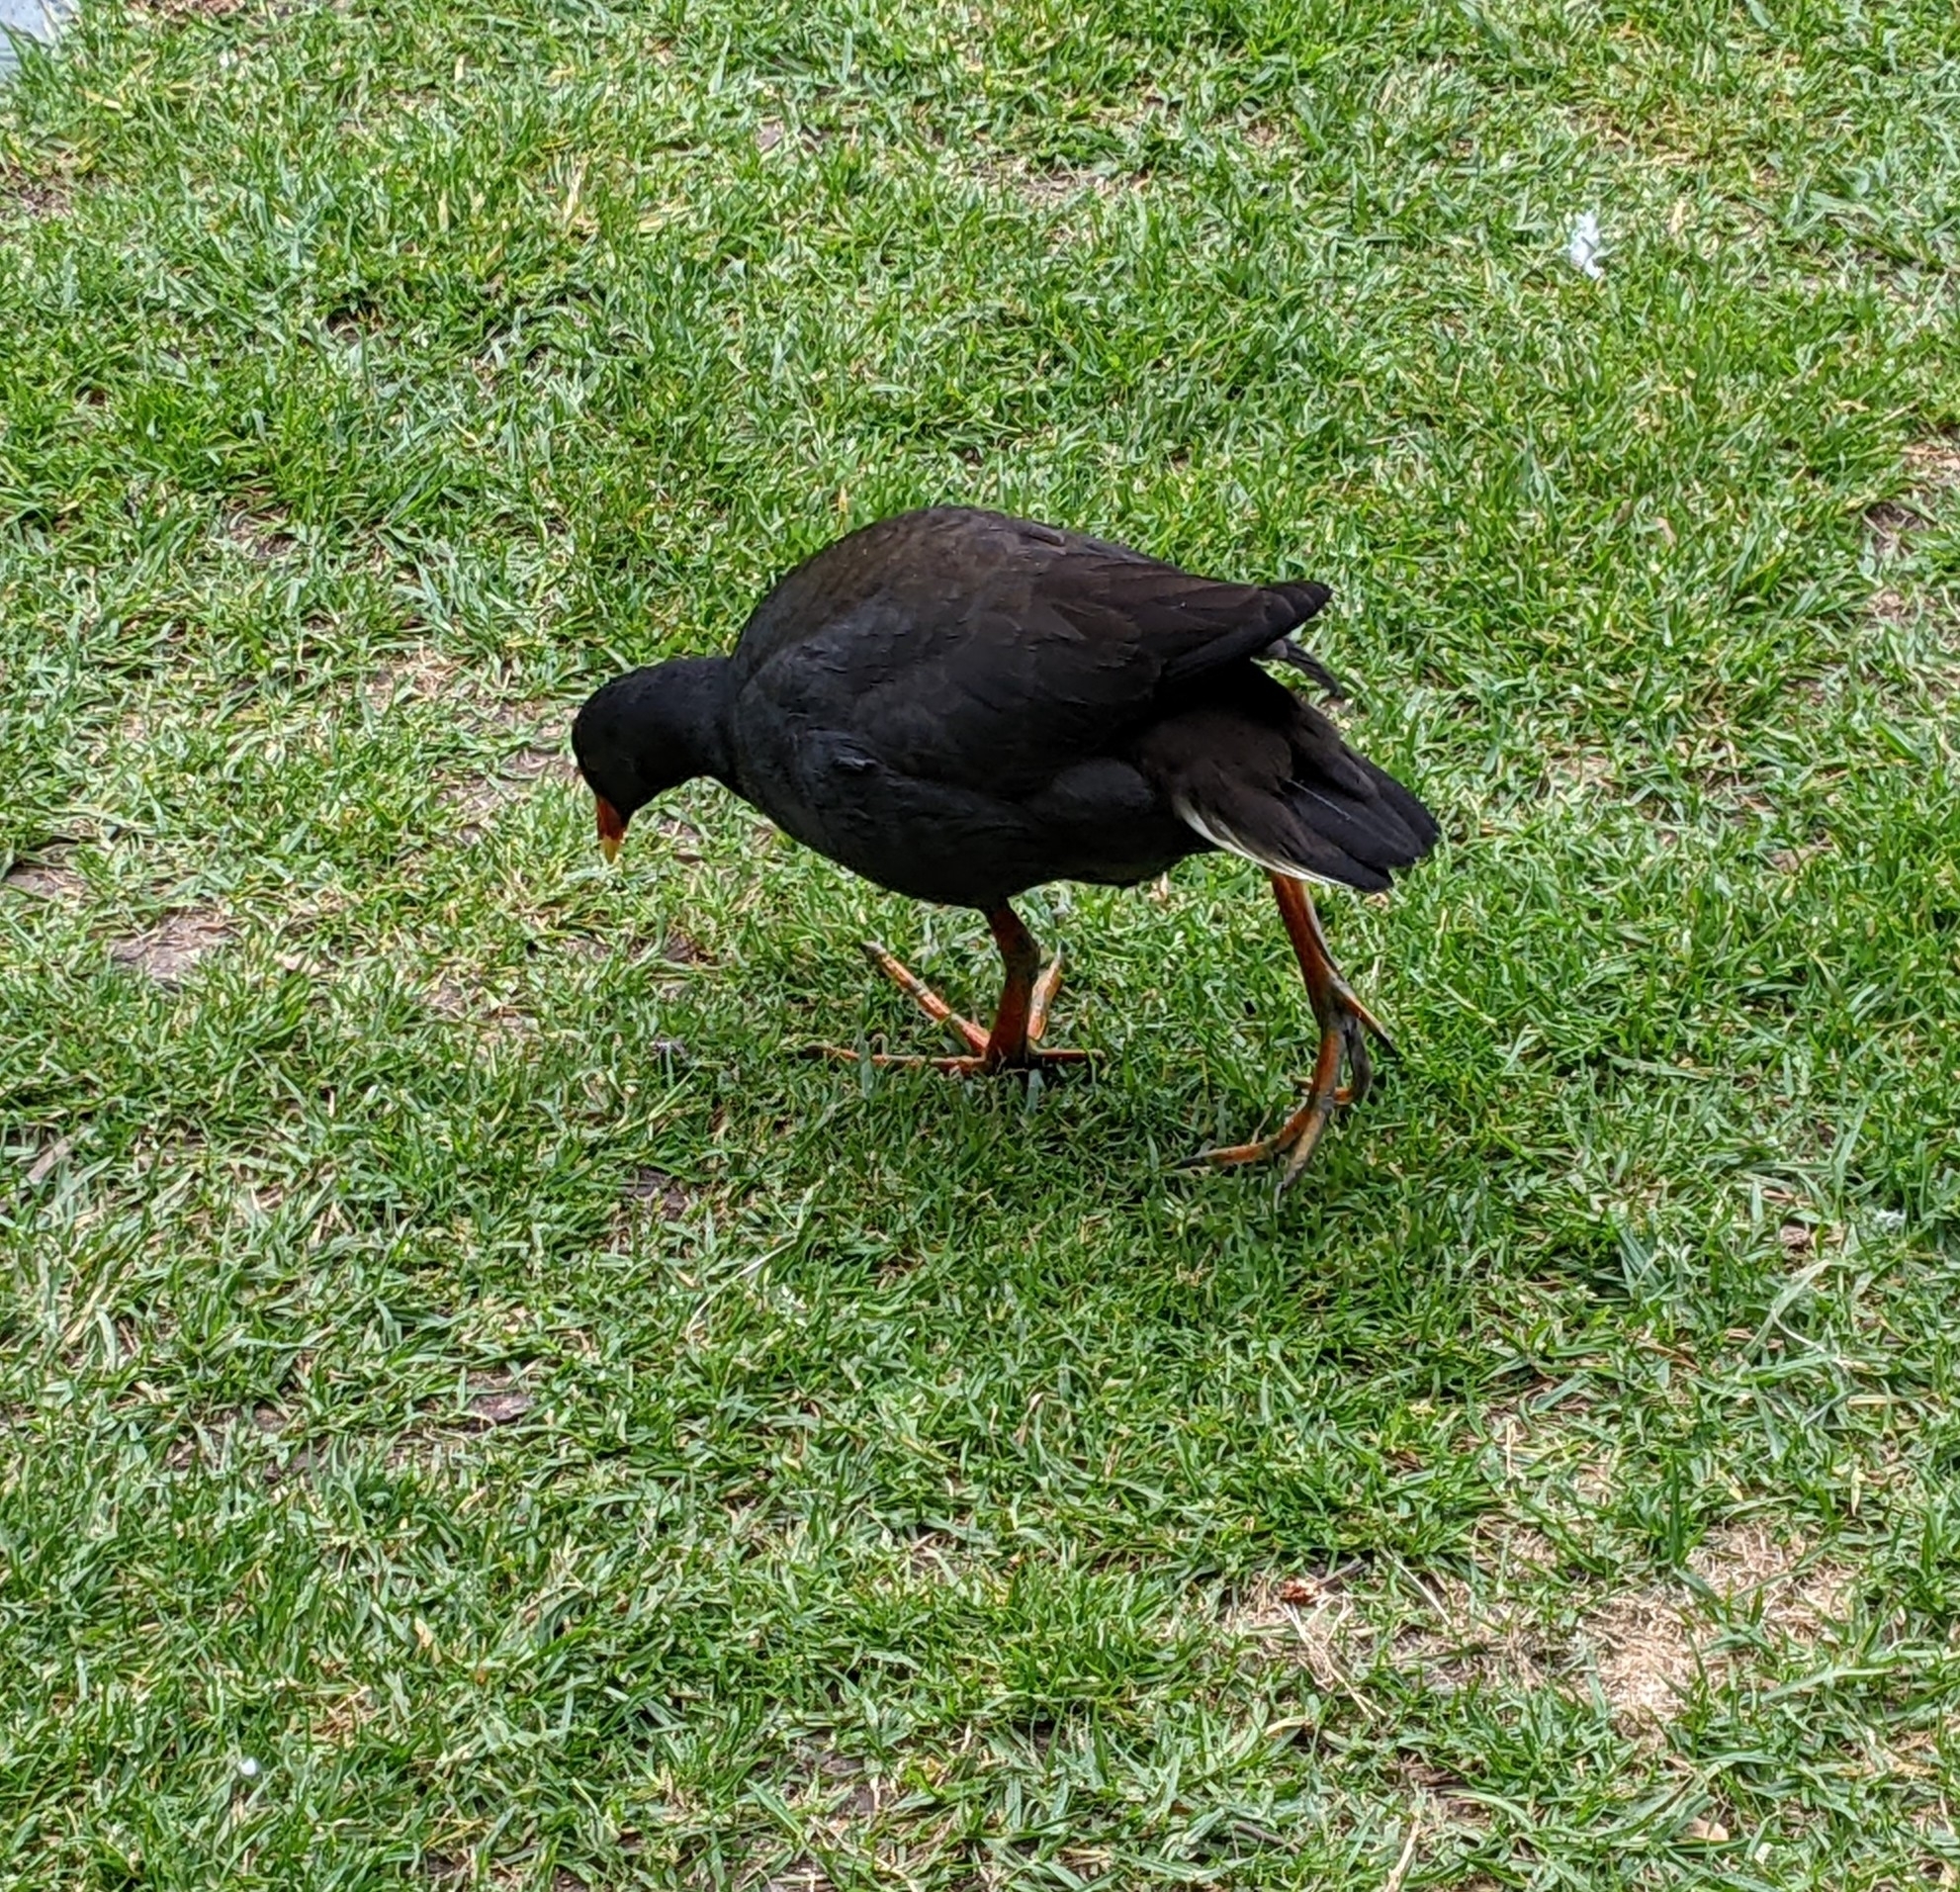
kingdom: Animalia
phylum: Chordata
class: Aves
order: Gruiformes
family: Rallidae
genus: Gallinula
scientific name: Gallinula tenebrosa
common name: Dusky moorhen
